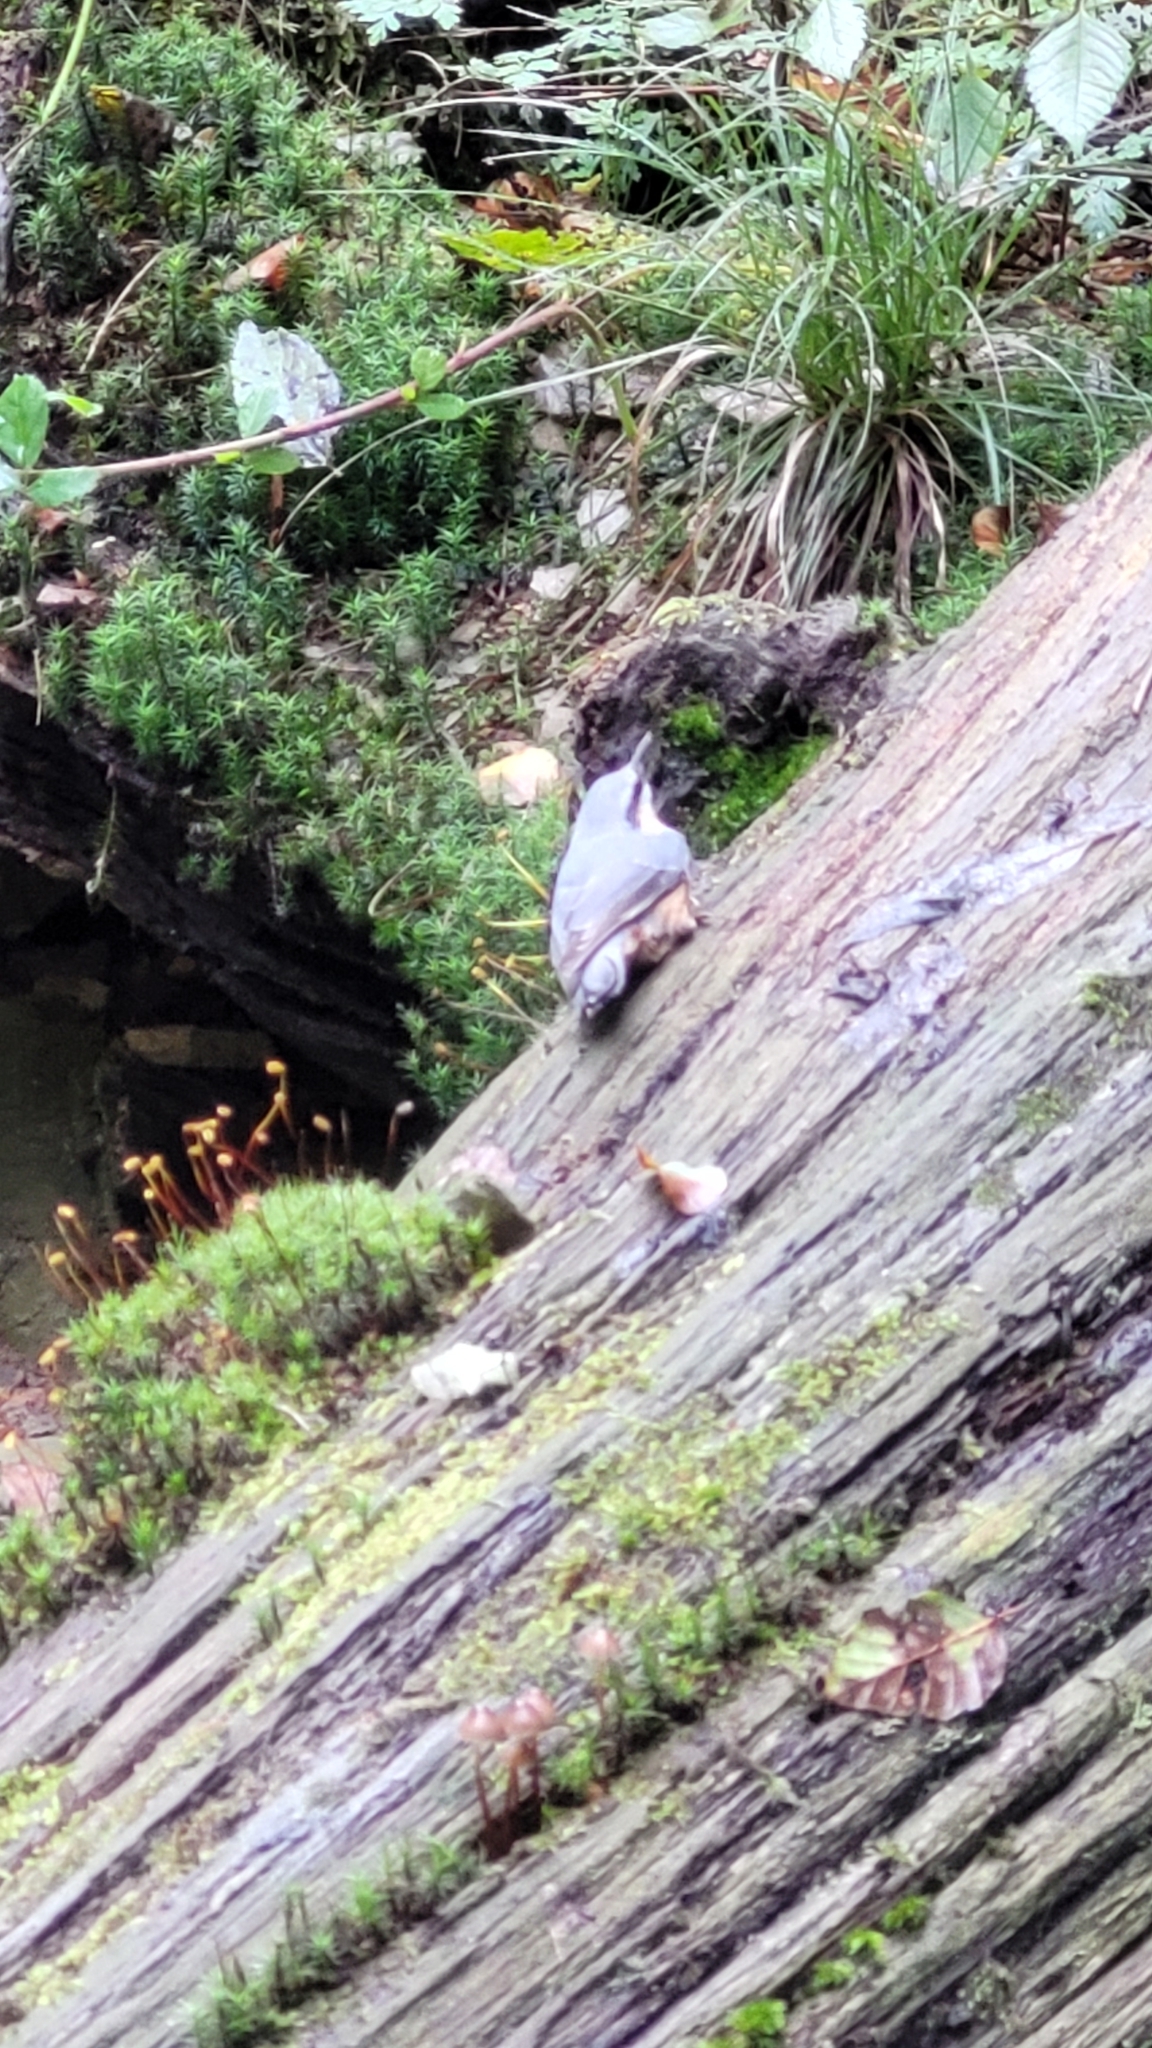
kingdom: Animalia
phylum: Chordata
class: Aves
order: Passeriformes
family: Sittidae
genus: Sitta
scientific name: Sitta europaea
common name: Eurasian nuthatch
